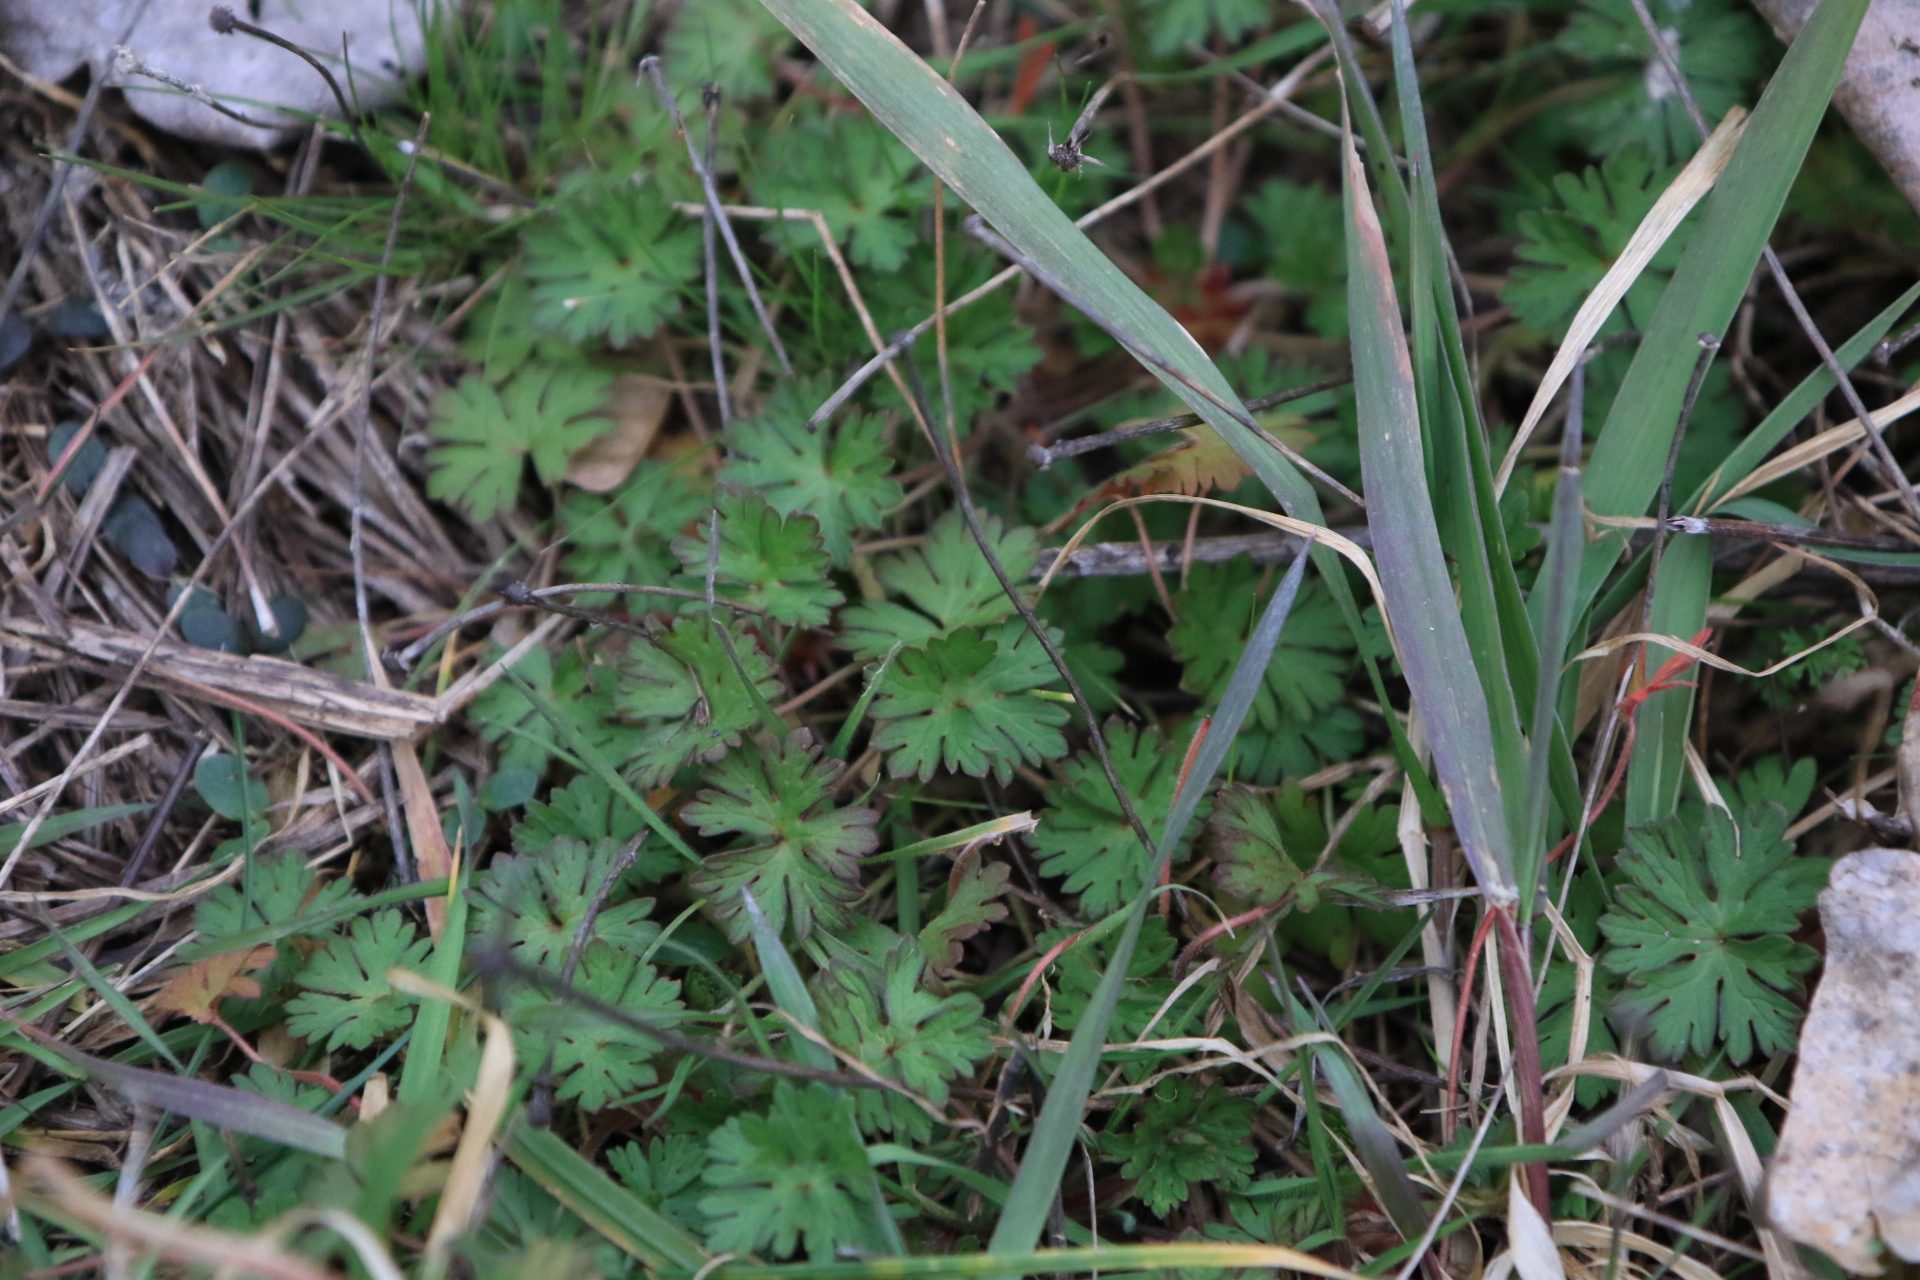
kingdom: Plantae
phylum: Tracheophyta
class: Magnoliopsida
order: Geraniales
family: Geraniaceae
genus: Geranium
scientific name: Geranium
